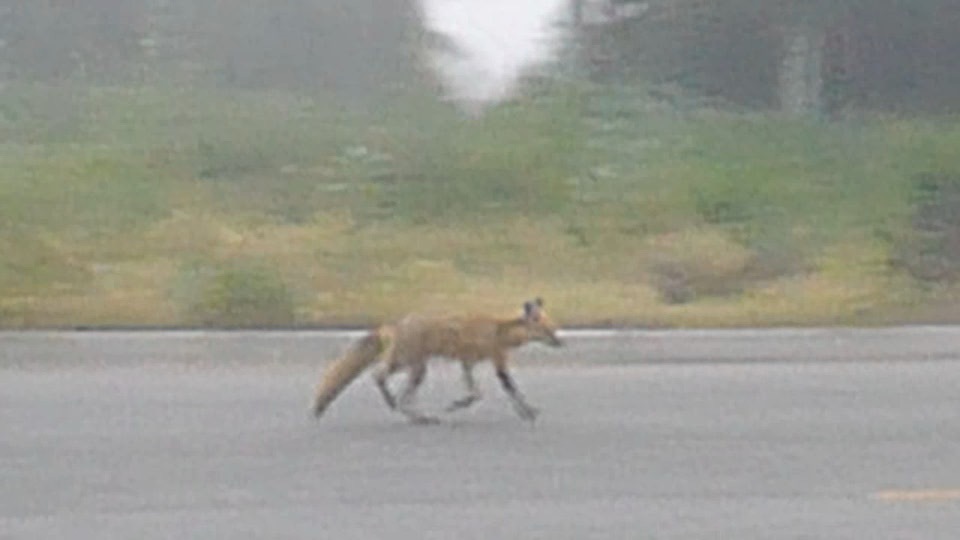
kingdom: Animalia
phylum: Chordata
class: Mammalia
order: Carnivora
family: Canidae
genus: Vulpes
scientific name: Vulpes vulpes
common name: Red fox
